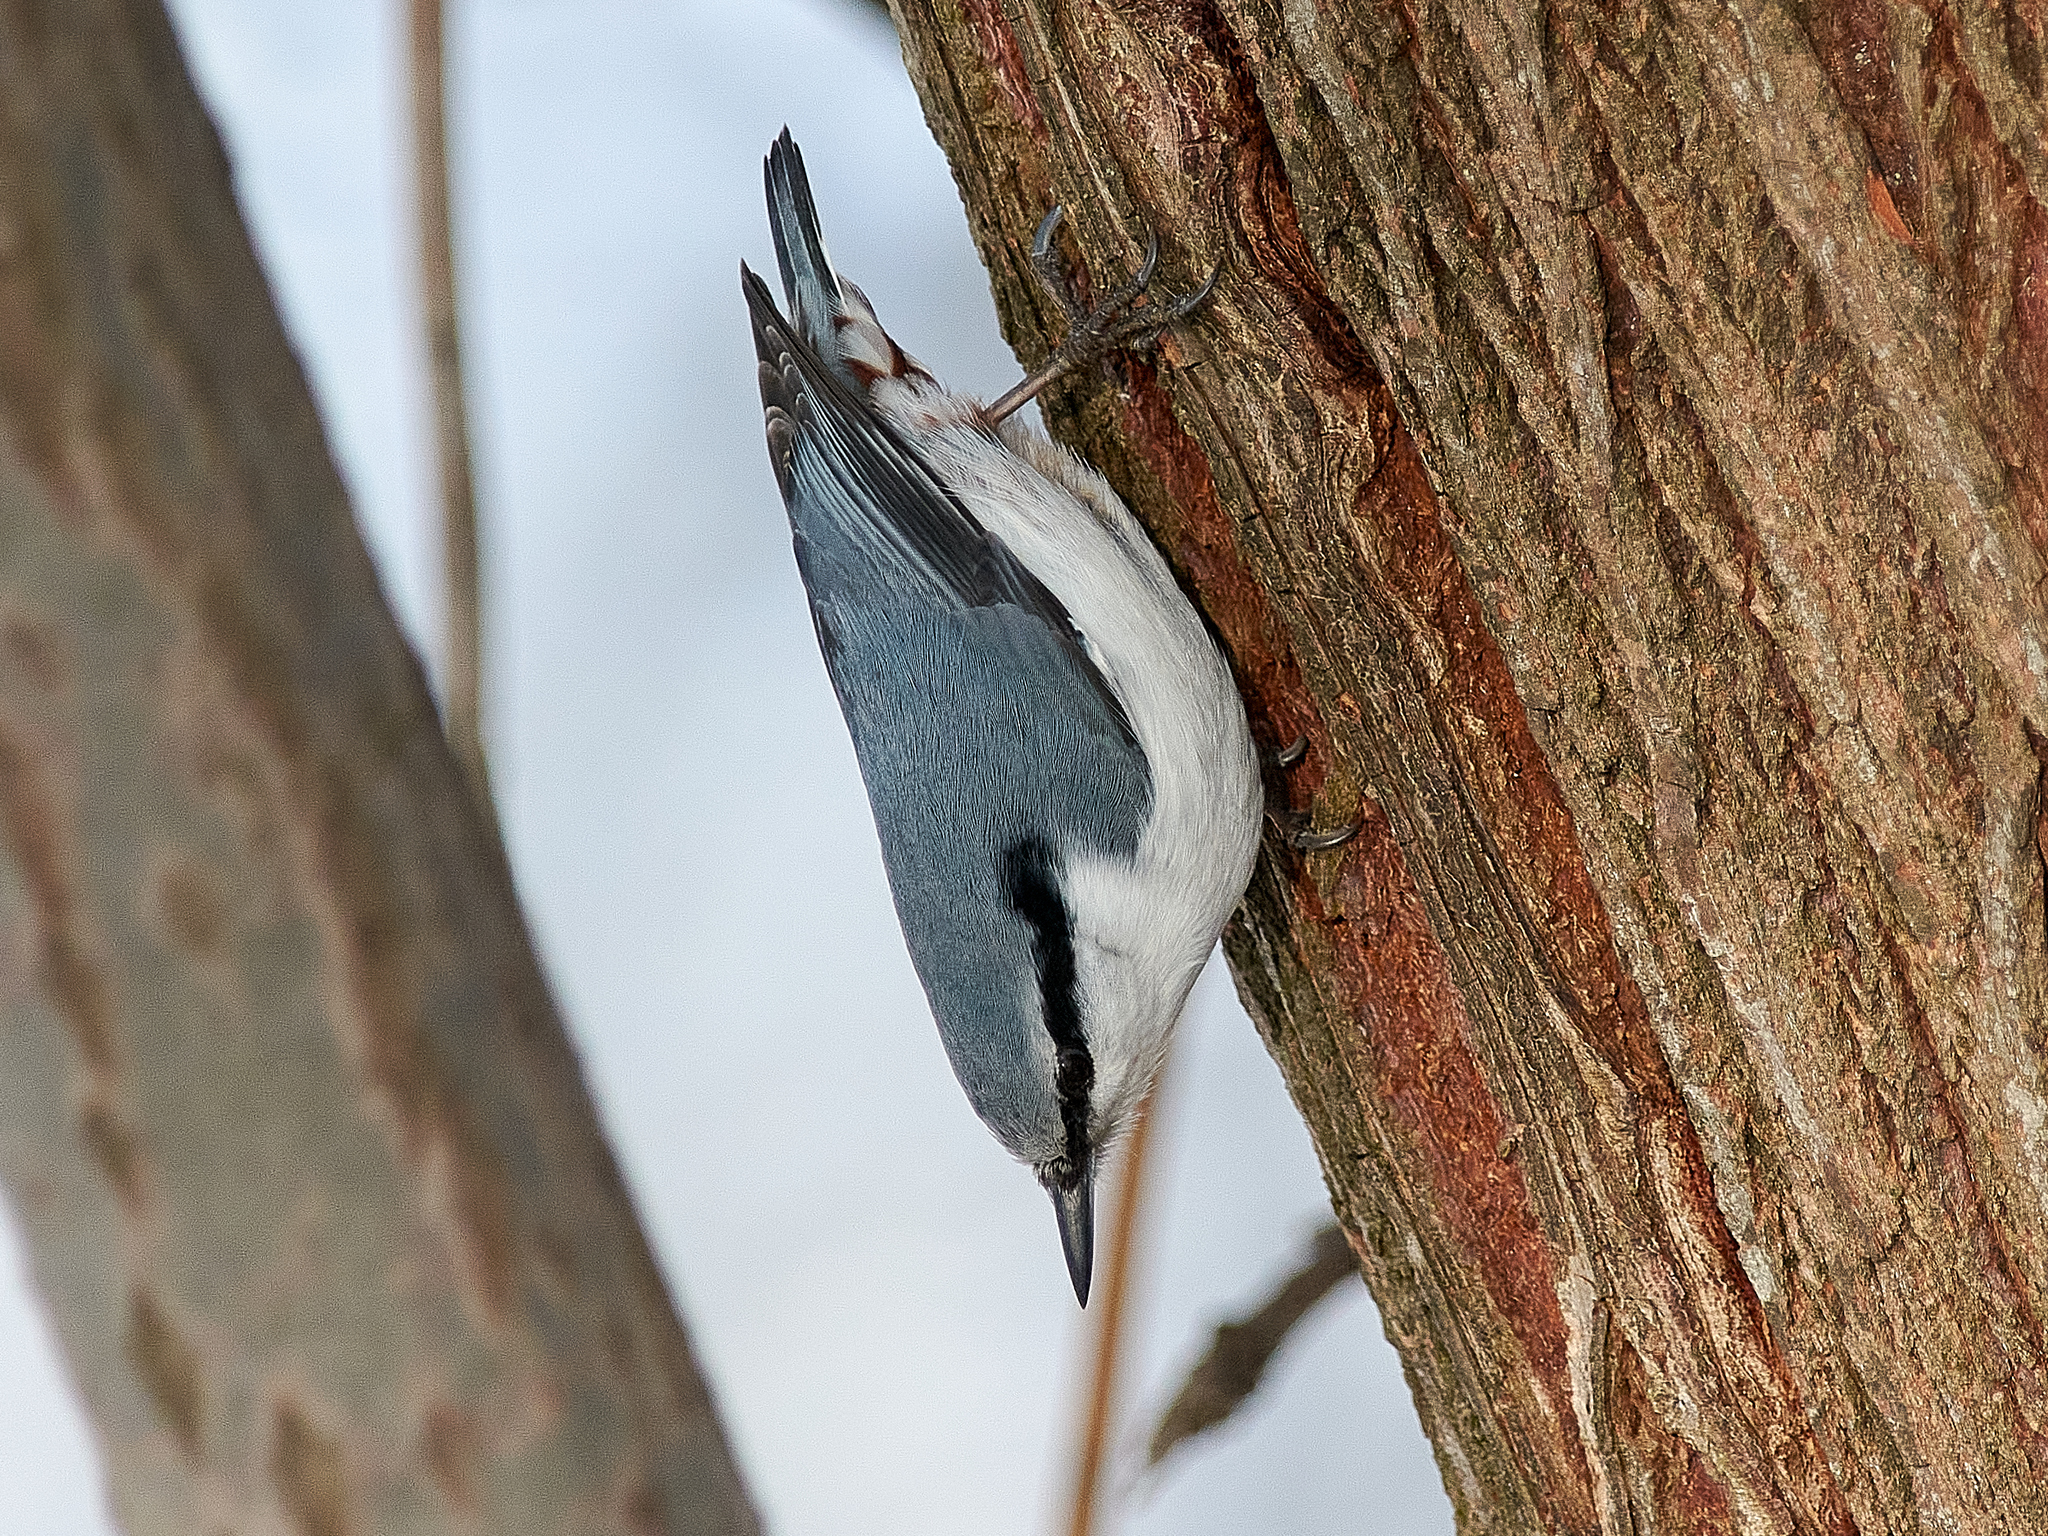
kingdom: Animalia
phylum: Chordata
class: Aves
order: Passeriformes
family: Sittidae
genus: Sitta
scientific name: Sitta europaea
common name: Eurasian nuthatch
